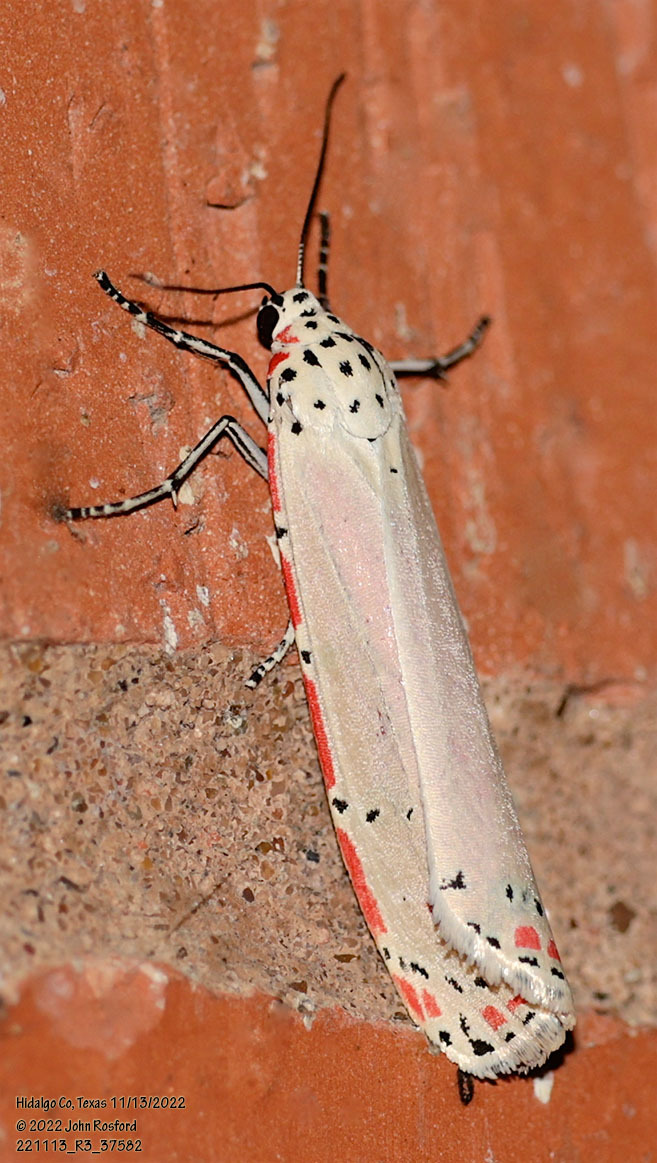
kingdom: Animalia
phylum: Arthropoda
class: Insecta
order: Lepidoptera
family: Erebidae
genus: Utetheisa
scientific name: Utetheisa ornatrix
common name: Beautiful utetheisa
